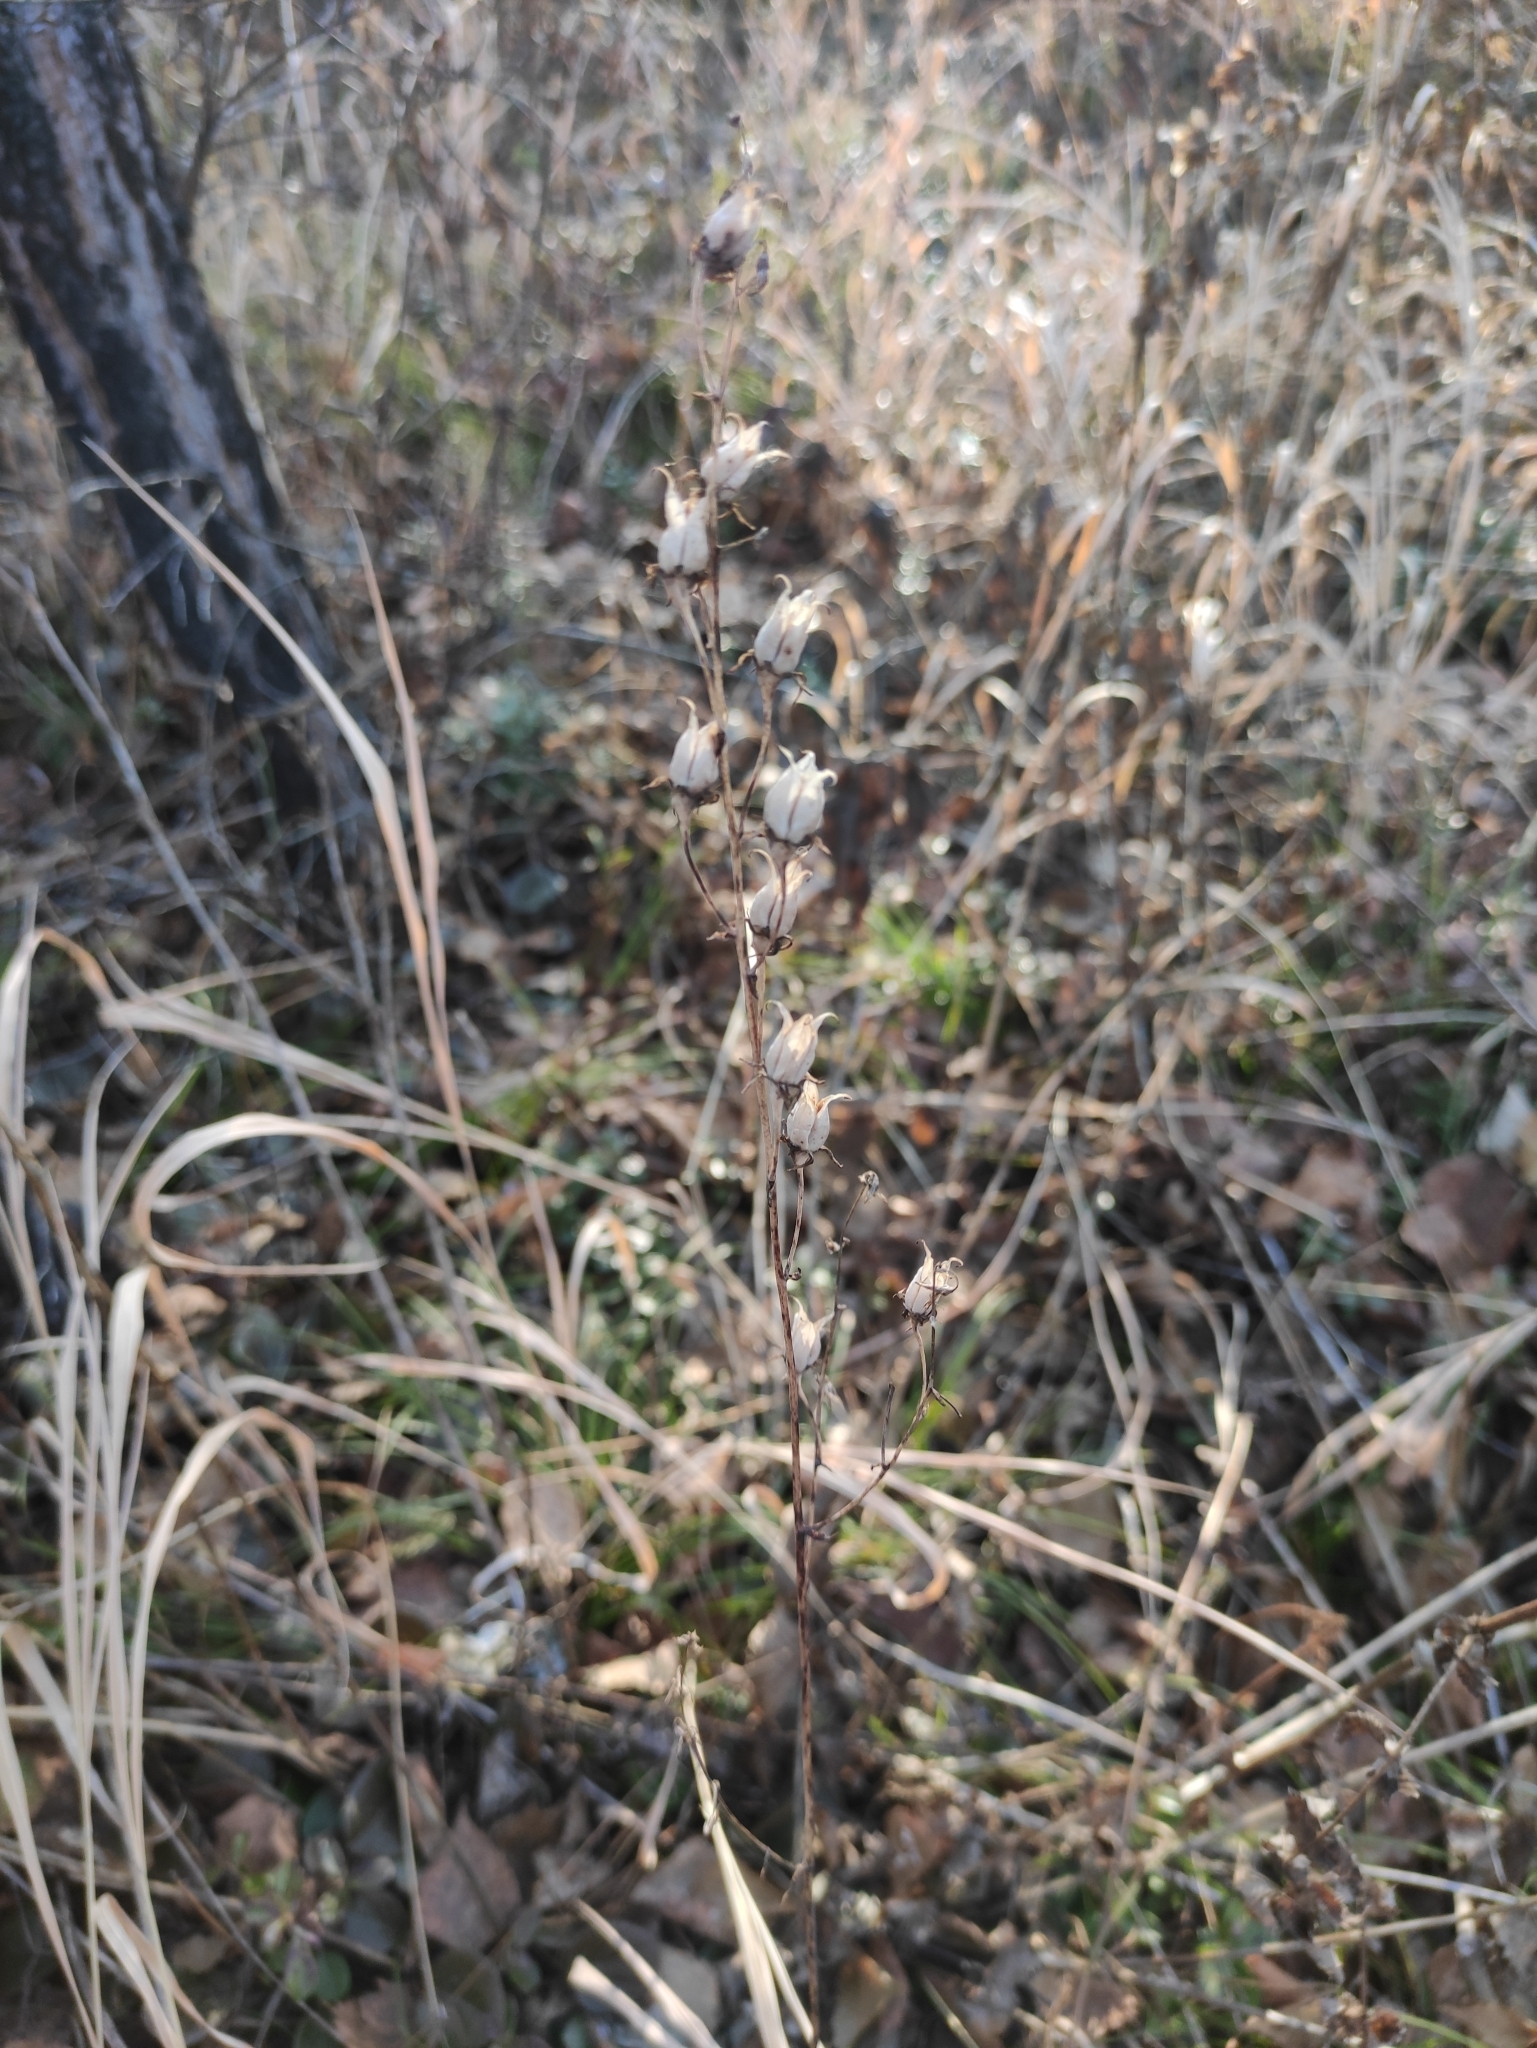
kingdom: Plantae
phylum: Tracheophyta
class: Liliopsida
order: Liliales
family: Melanthiaceae
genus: Anticlea
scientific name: Anticlea sibirica
